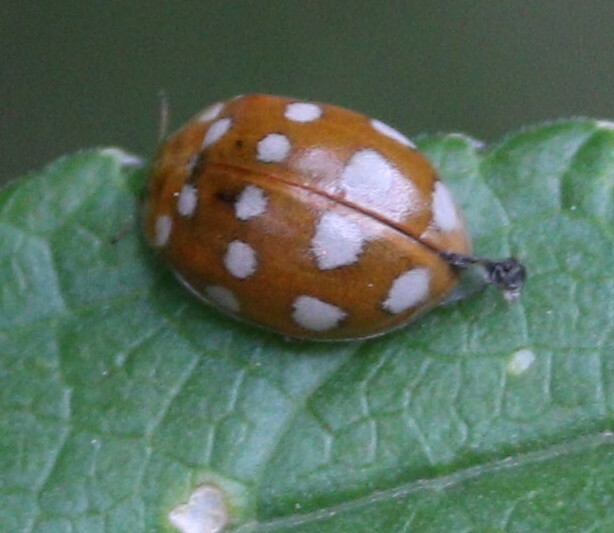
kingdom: Animalia
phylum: Arthropoda
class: Insecta
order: Coleoptera
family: Coccinellidae
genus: Calvia
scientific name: Calvia quatuordecimguttata
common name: Cream-spot ladybird
